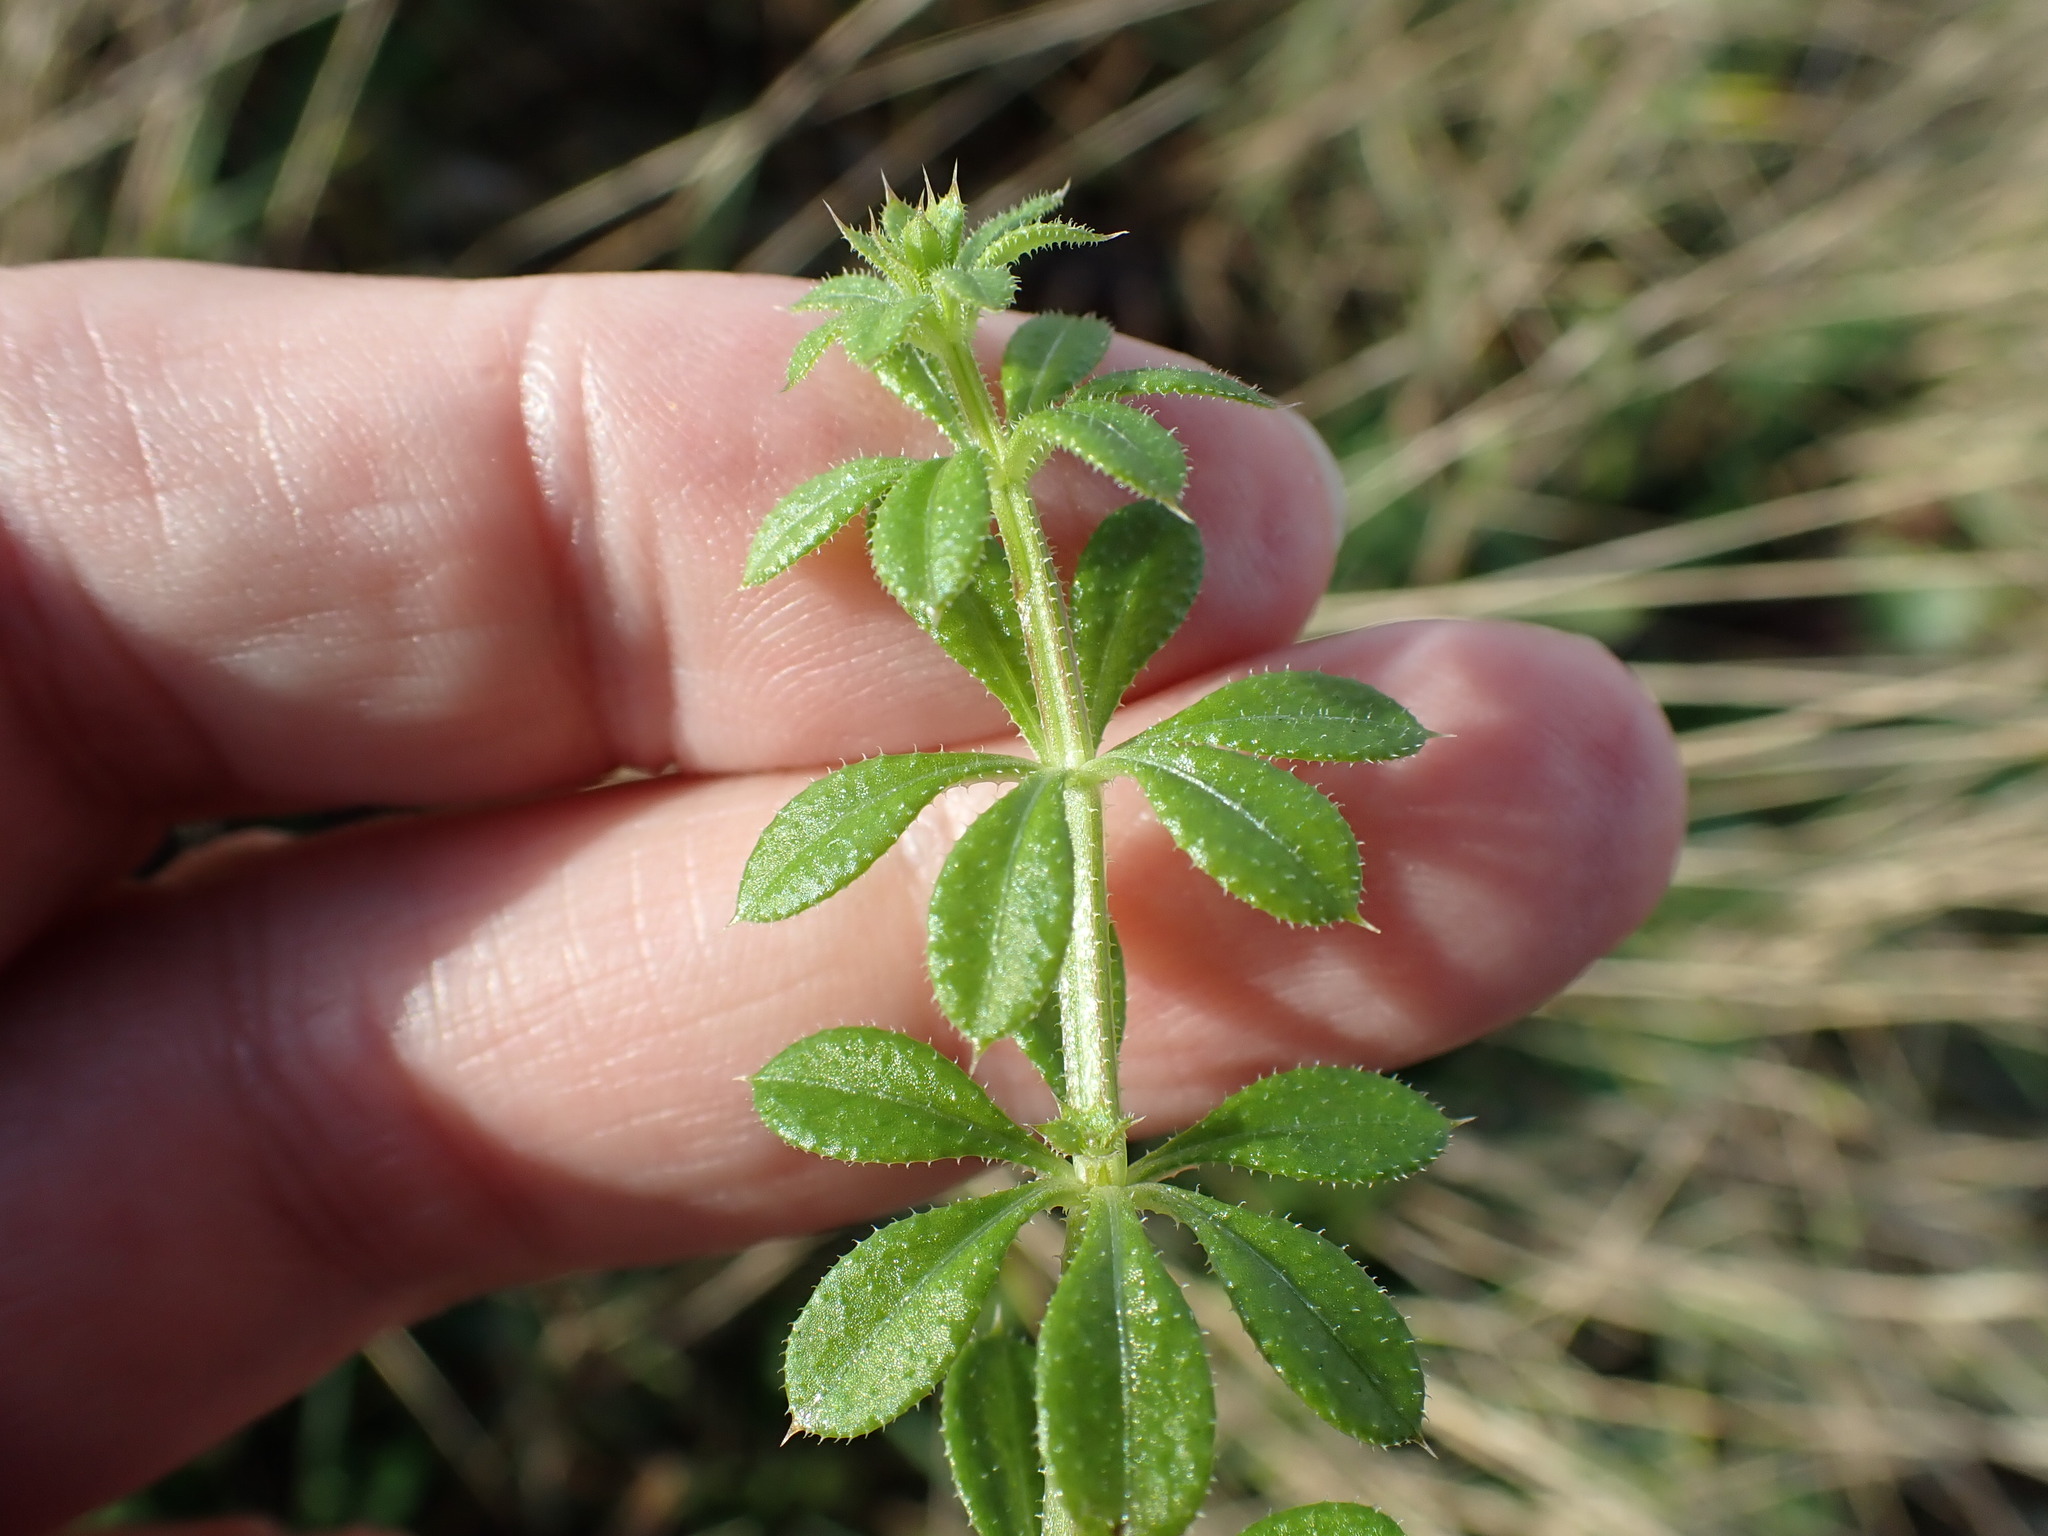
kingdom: Plantae
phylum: Tracheophyta
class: Magnoliopsida
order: Gentianales
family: Rubiaceae
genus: Galium
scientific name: Galium aparine
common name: Cleavers
